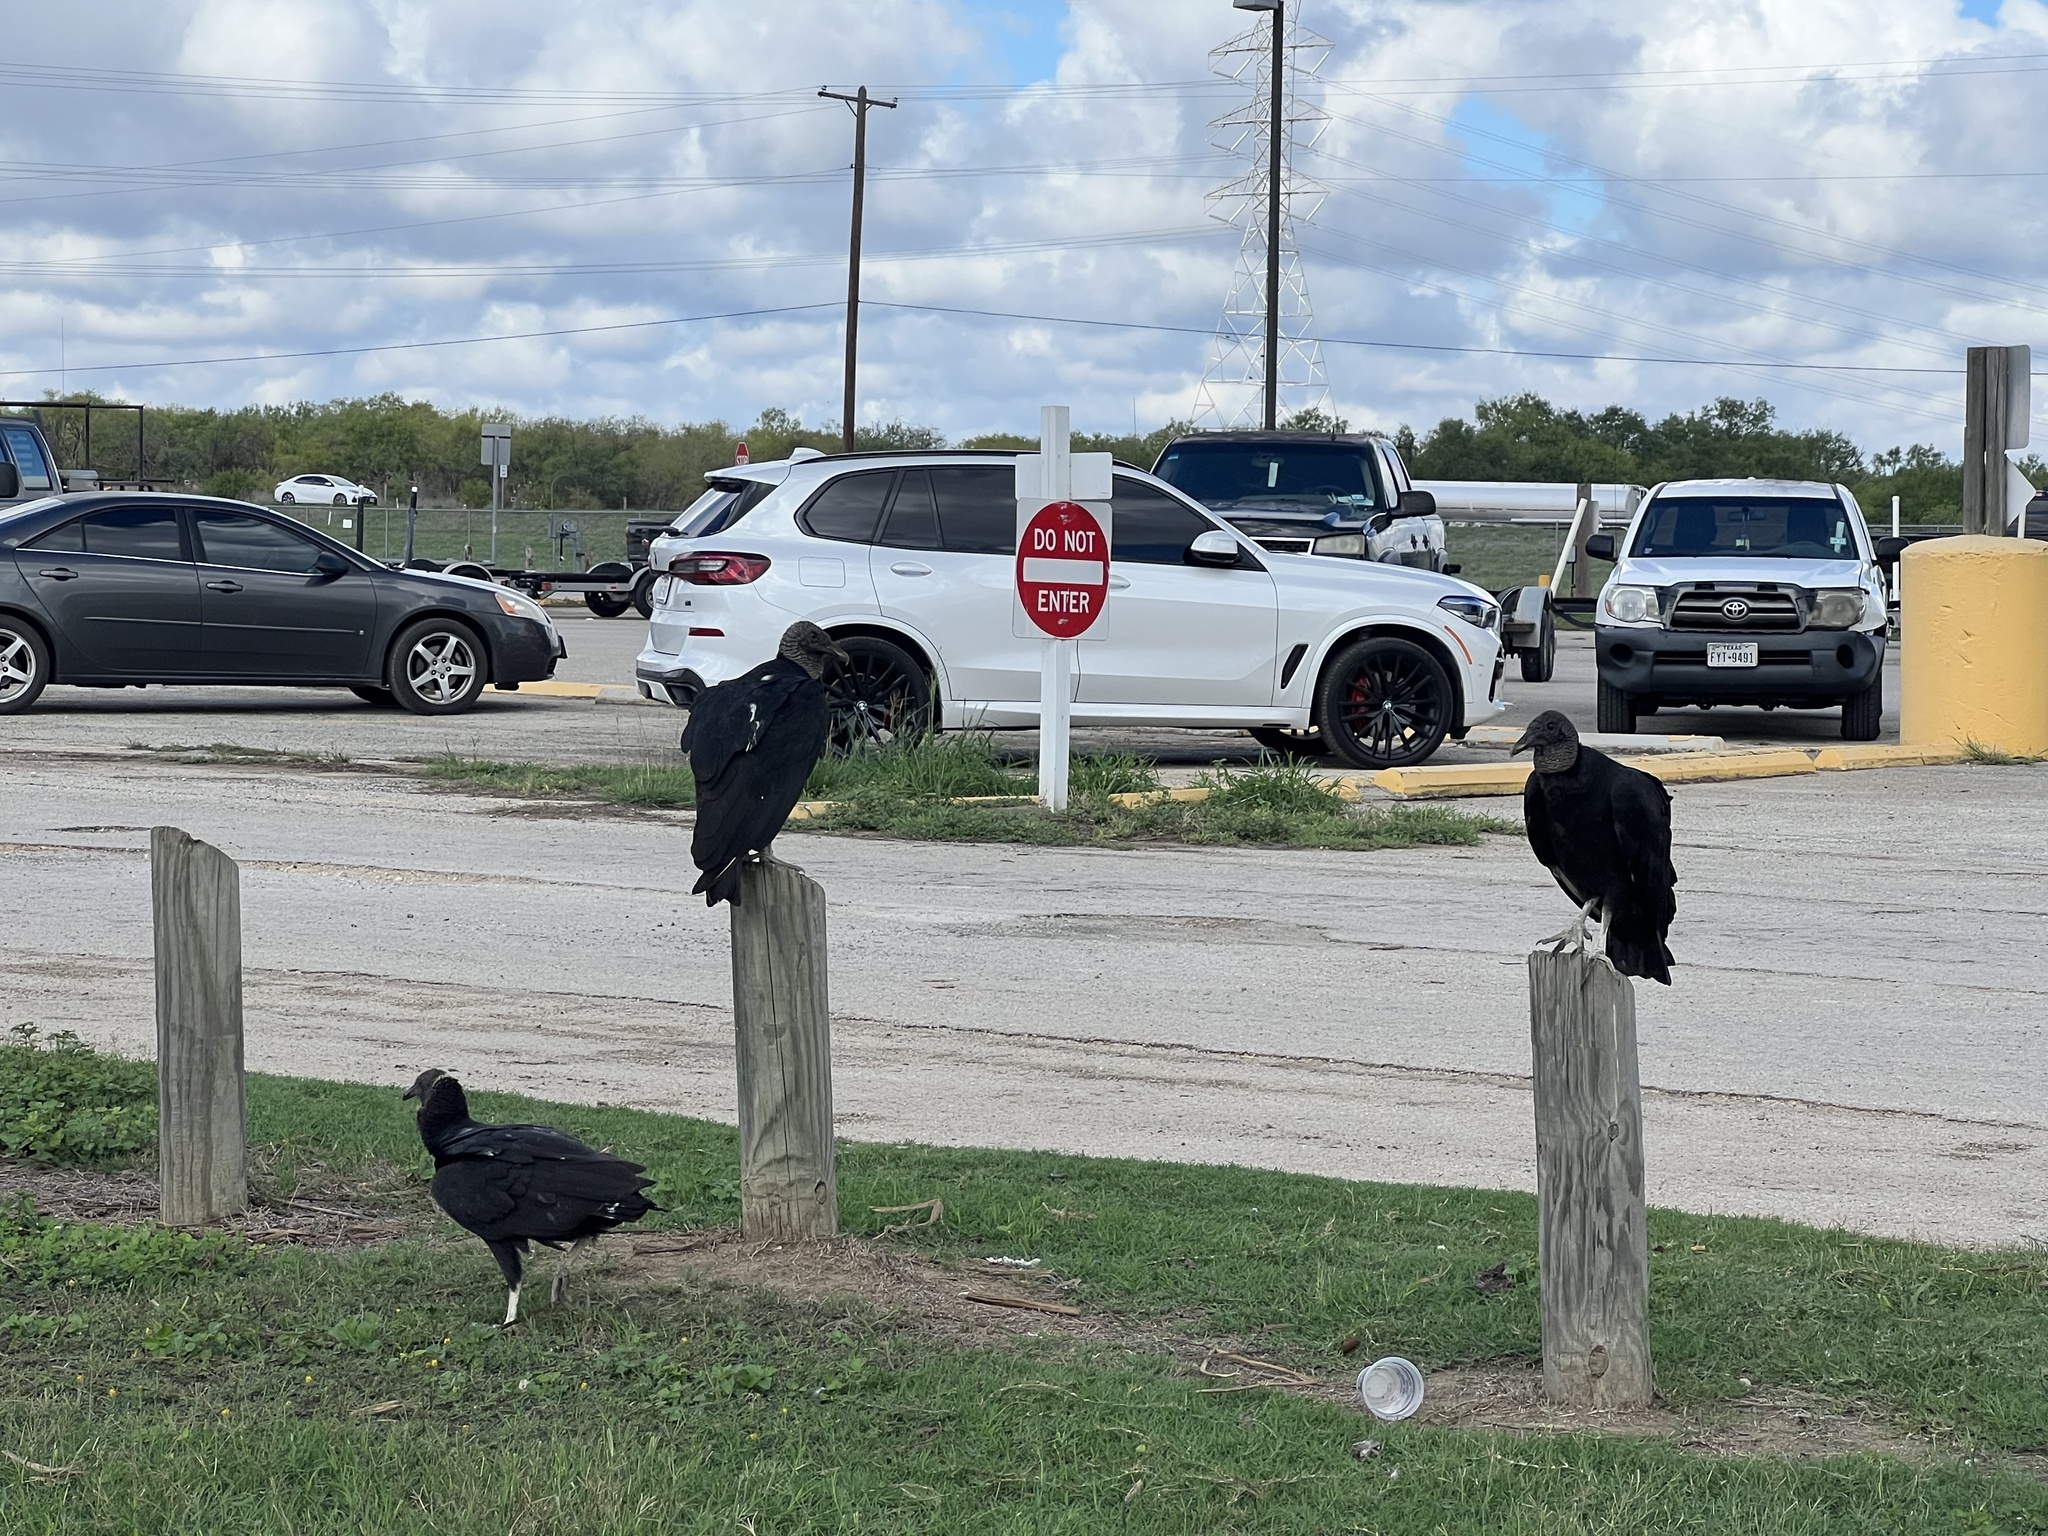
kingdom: Animalia
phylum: Chordata
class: Aves
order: Accipitriformes
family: Cathartidae
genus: Coragyps
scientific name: Coragyps atratus
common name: Black vulture
